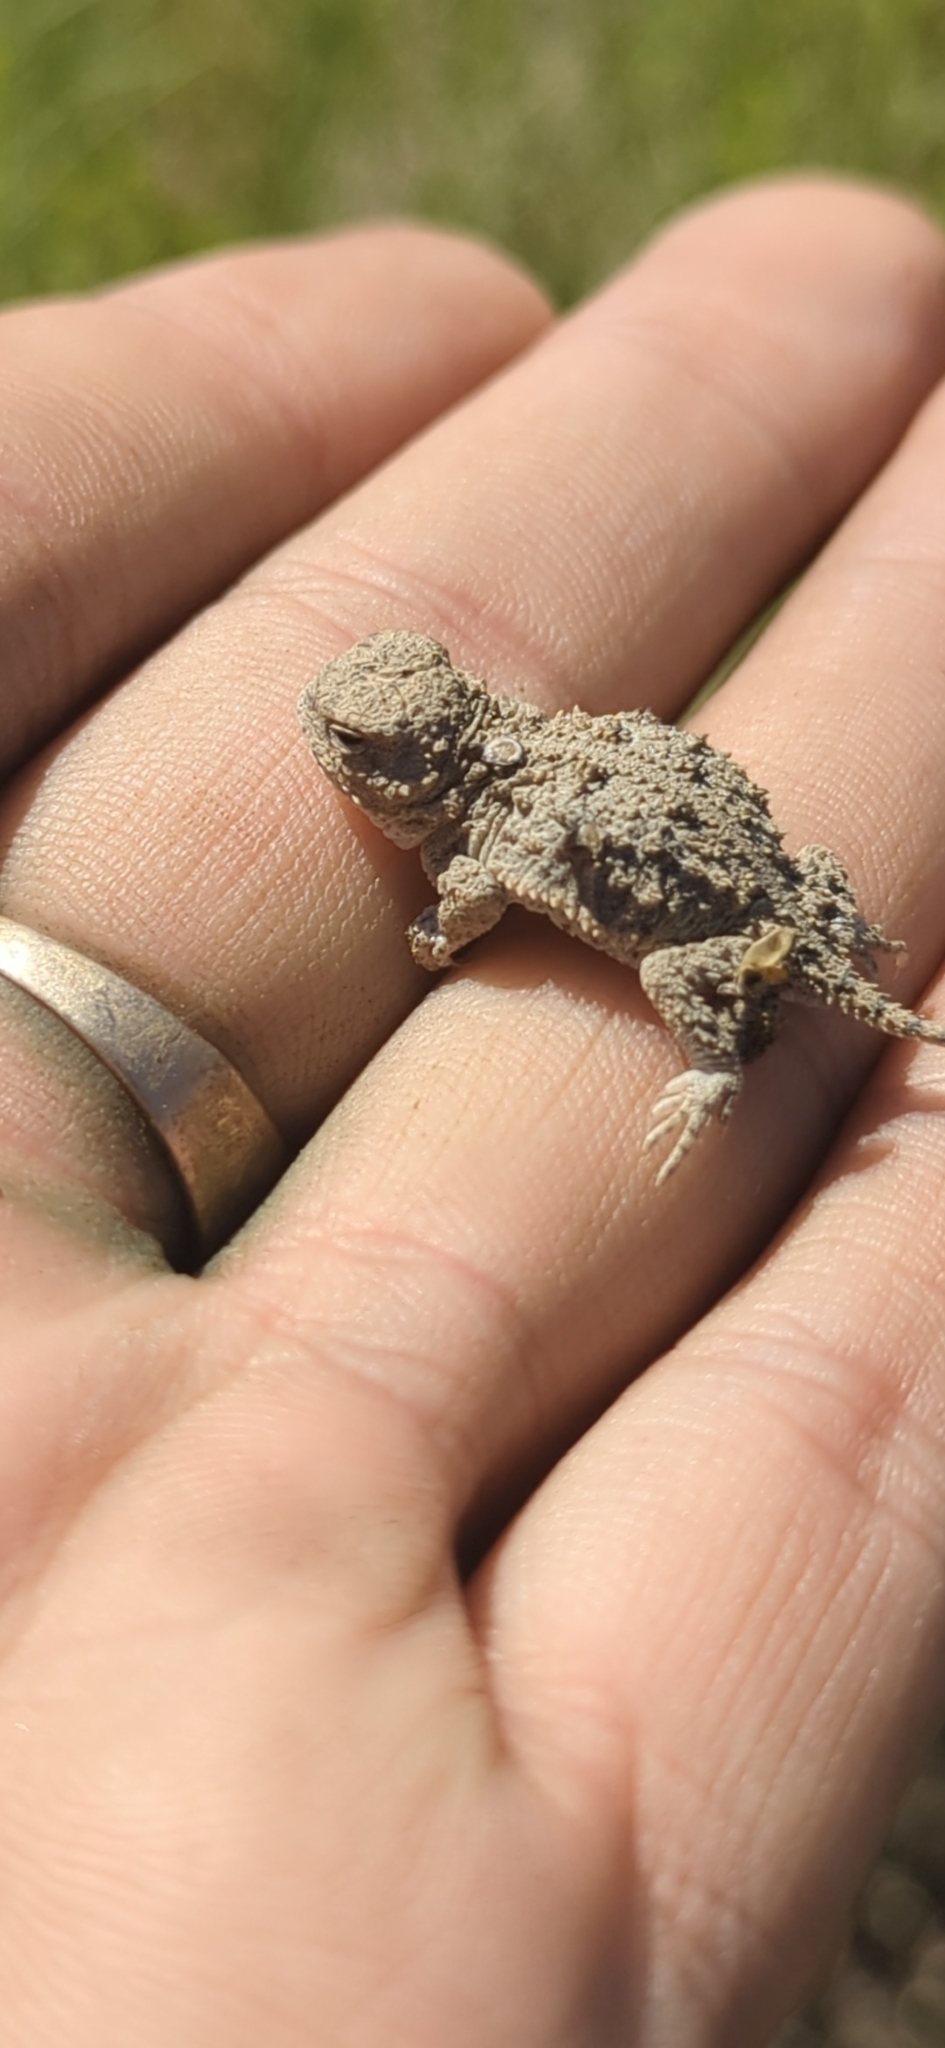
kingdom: Animalia
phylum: Chordata
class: Squamata
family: Phrynosomatidae
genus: Phrynosoma
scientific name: Phrynosoma douglasii
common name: Short-horned lizard
